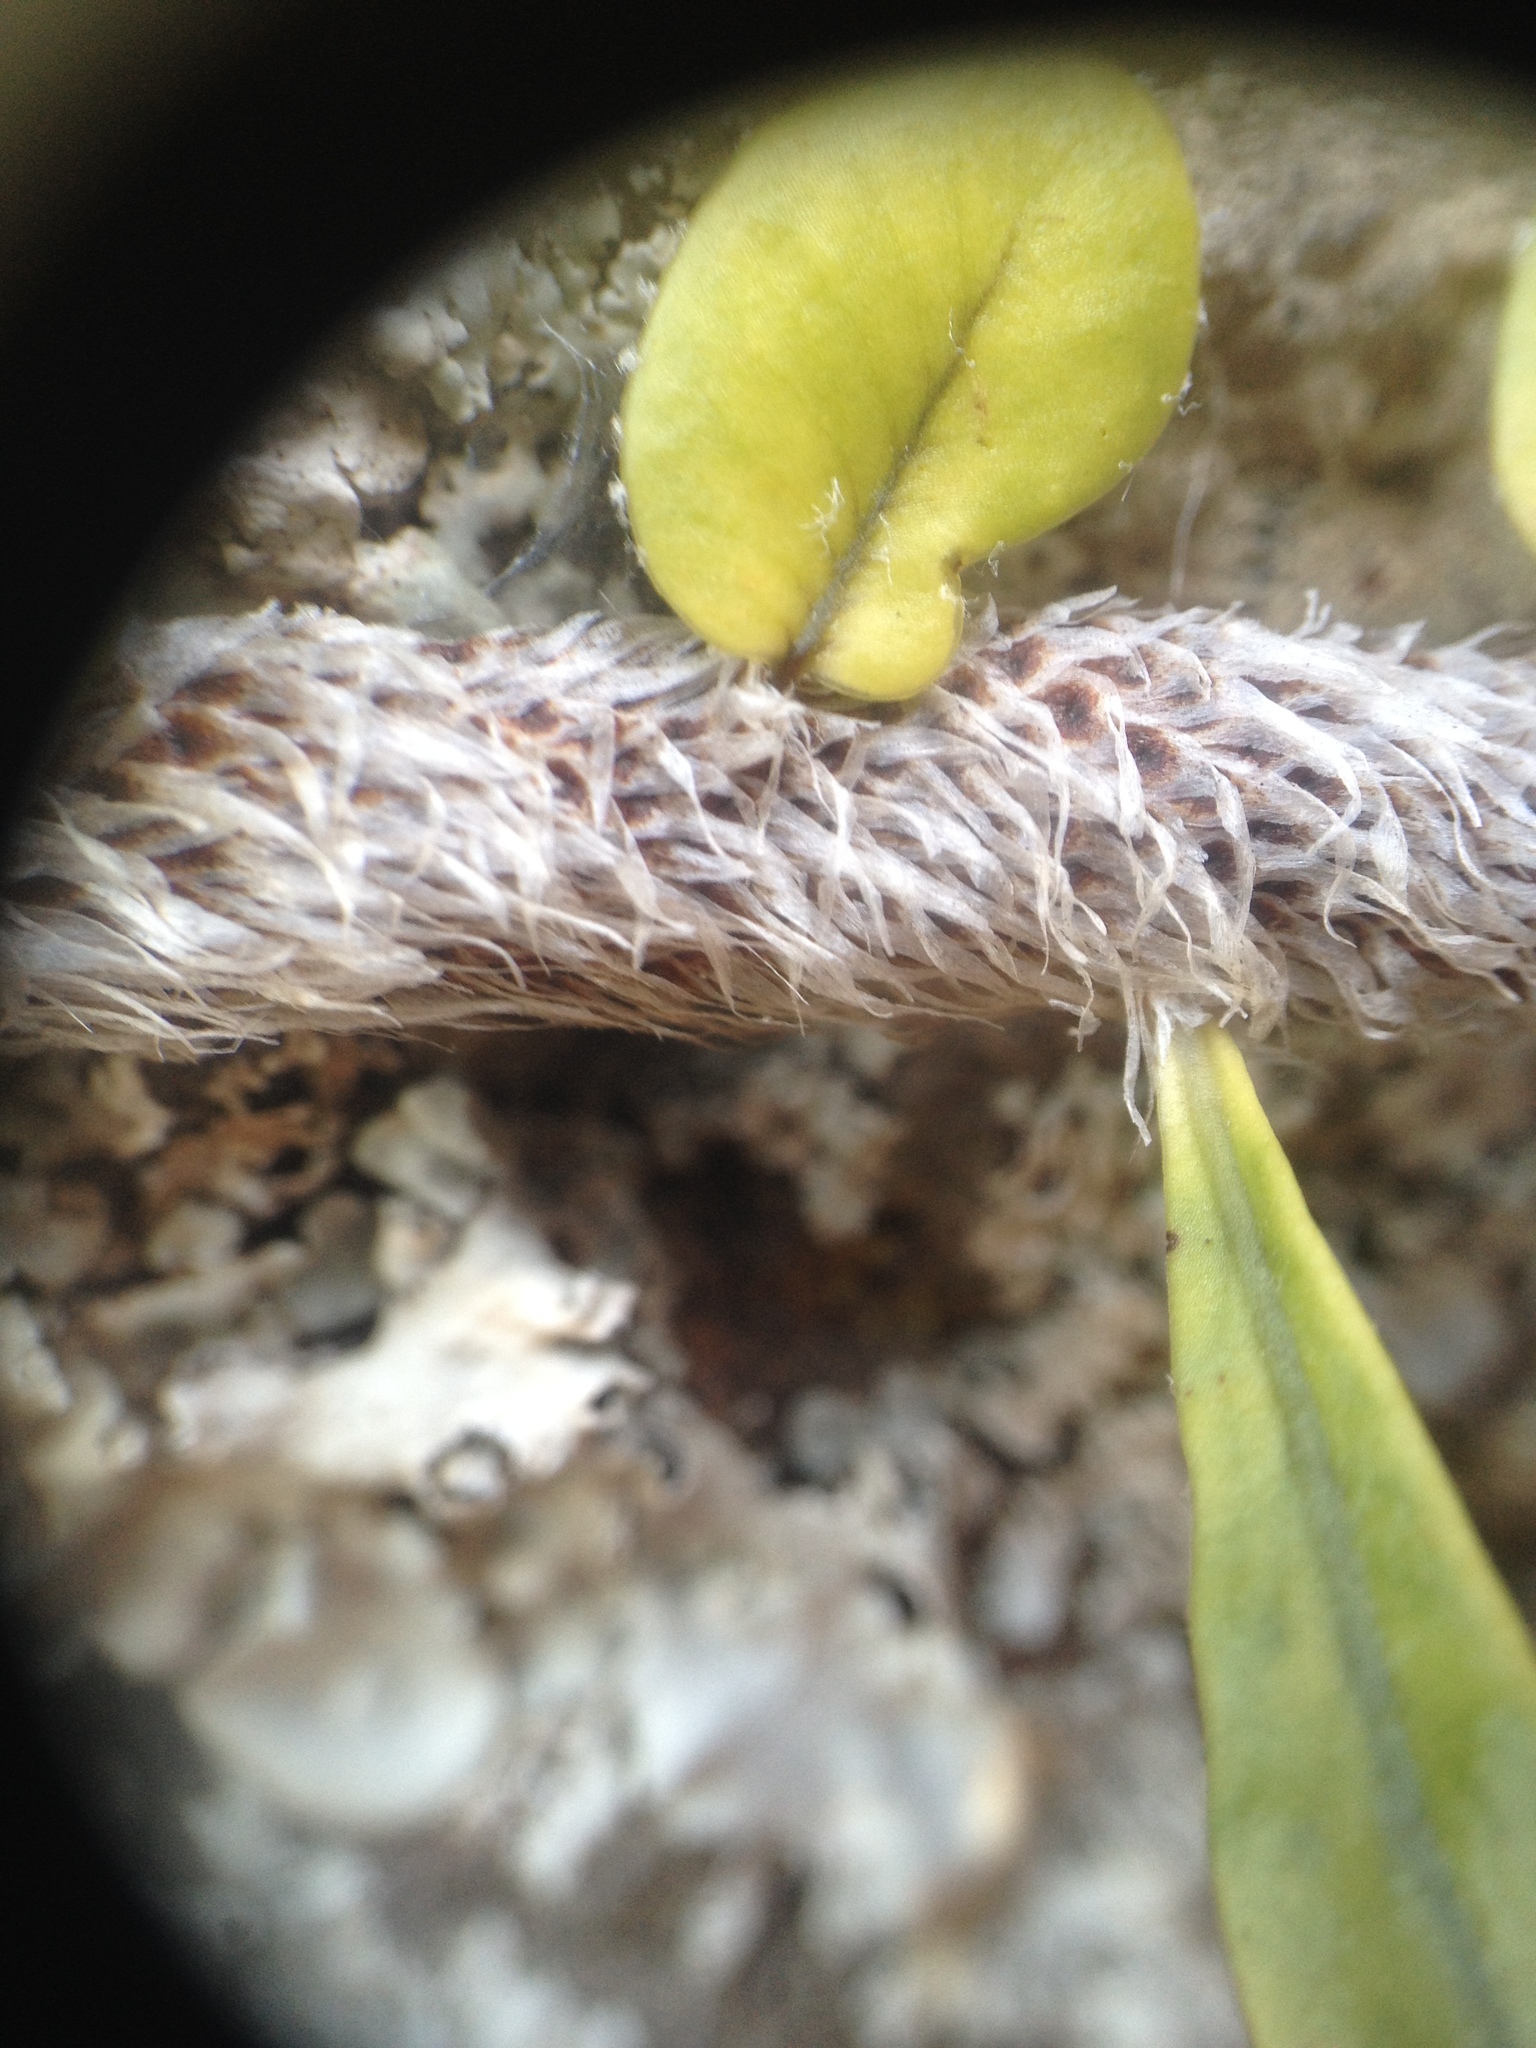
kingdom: Plantae
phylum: Tracheophyta
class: Polypodiopsida
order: Polypodiales
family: Polypodiaceae
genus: Microgramma
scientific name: Microgramma vaccinifolia
